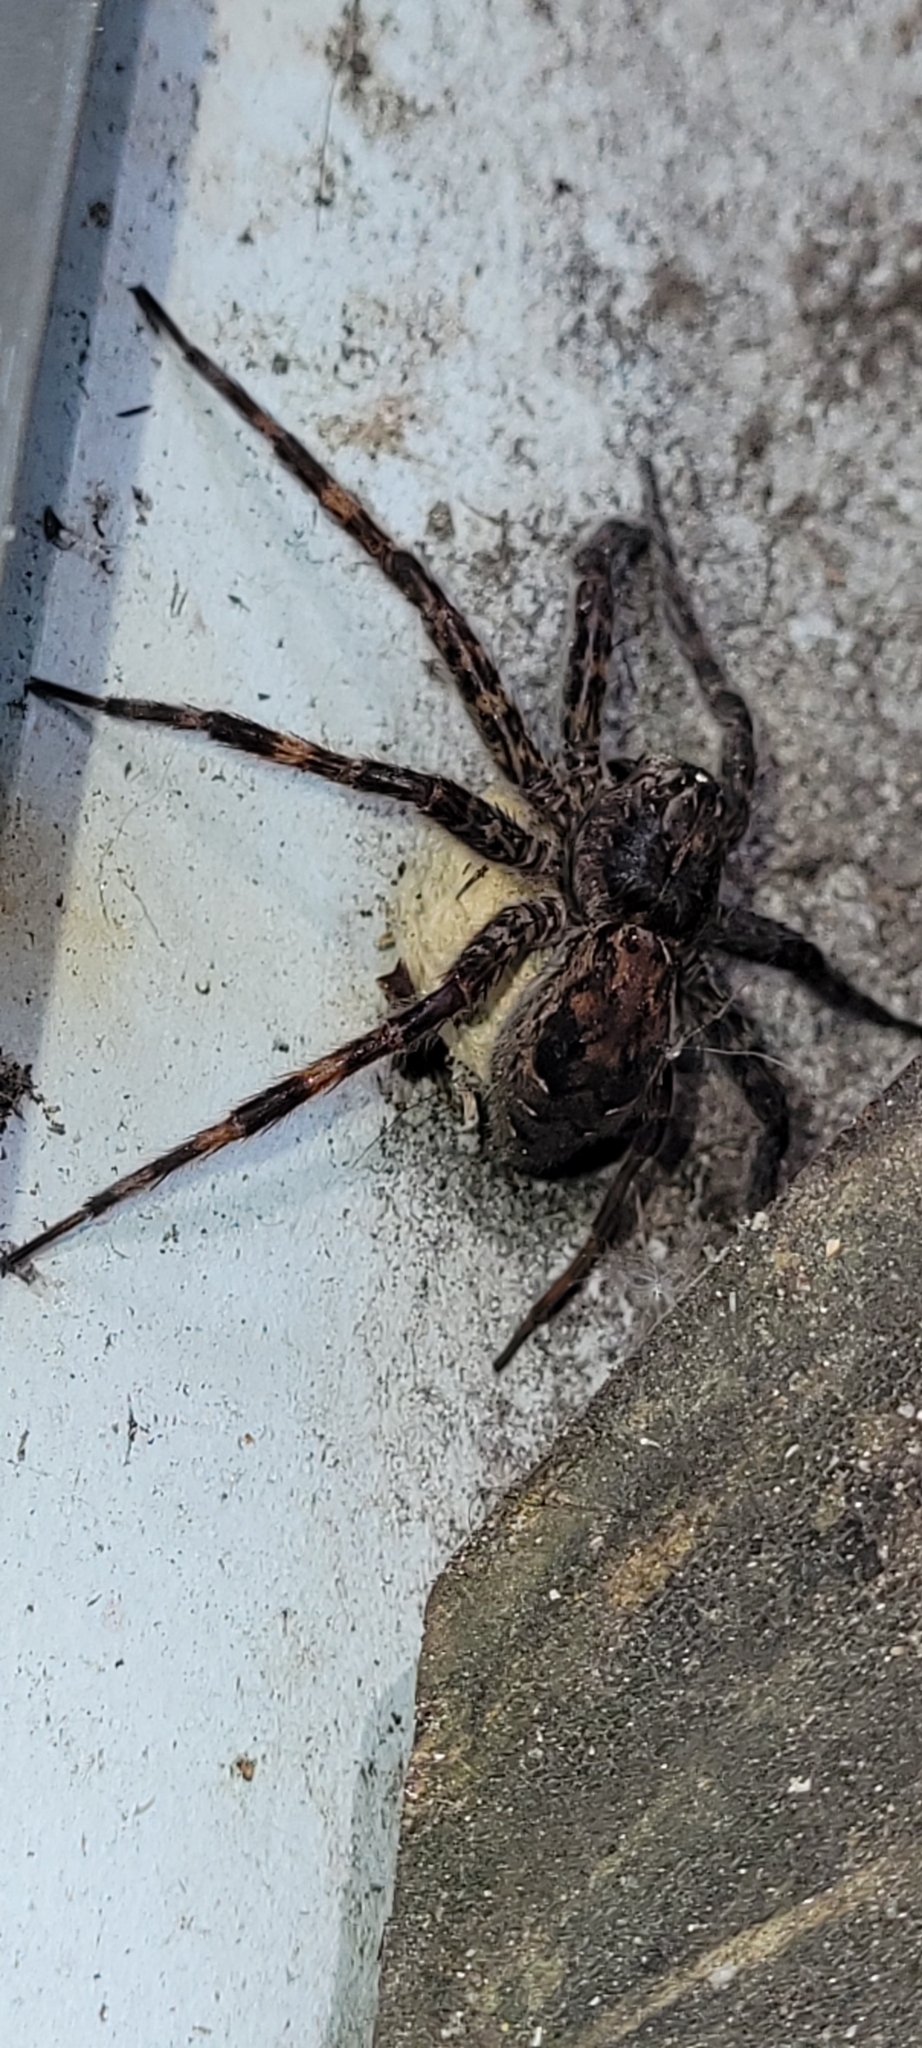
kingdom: Animalia
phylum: Arthropoda
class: Arachnida
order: Araneae
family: Pisauridae
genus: Dolomedes
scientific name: Dolomedes tenebrosus
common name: Dark fishing spider
